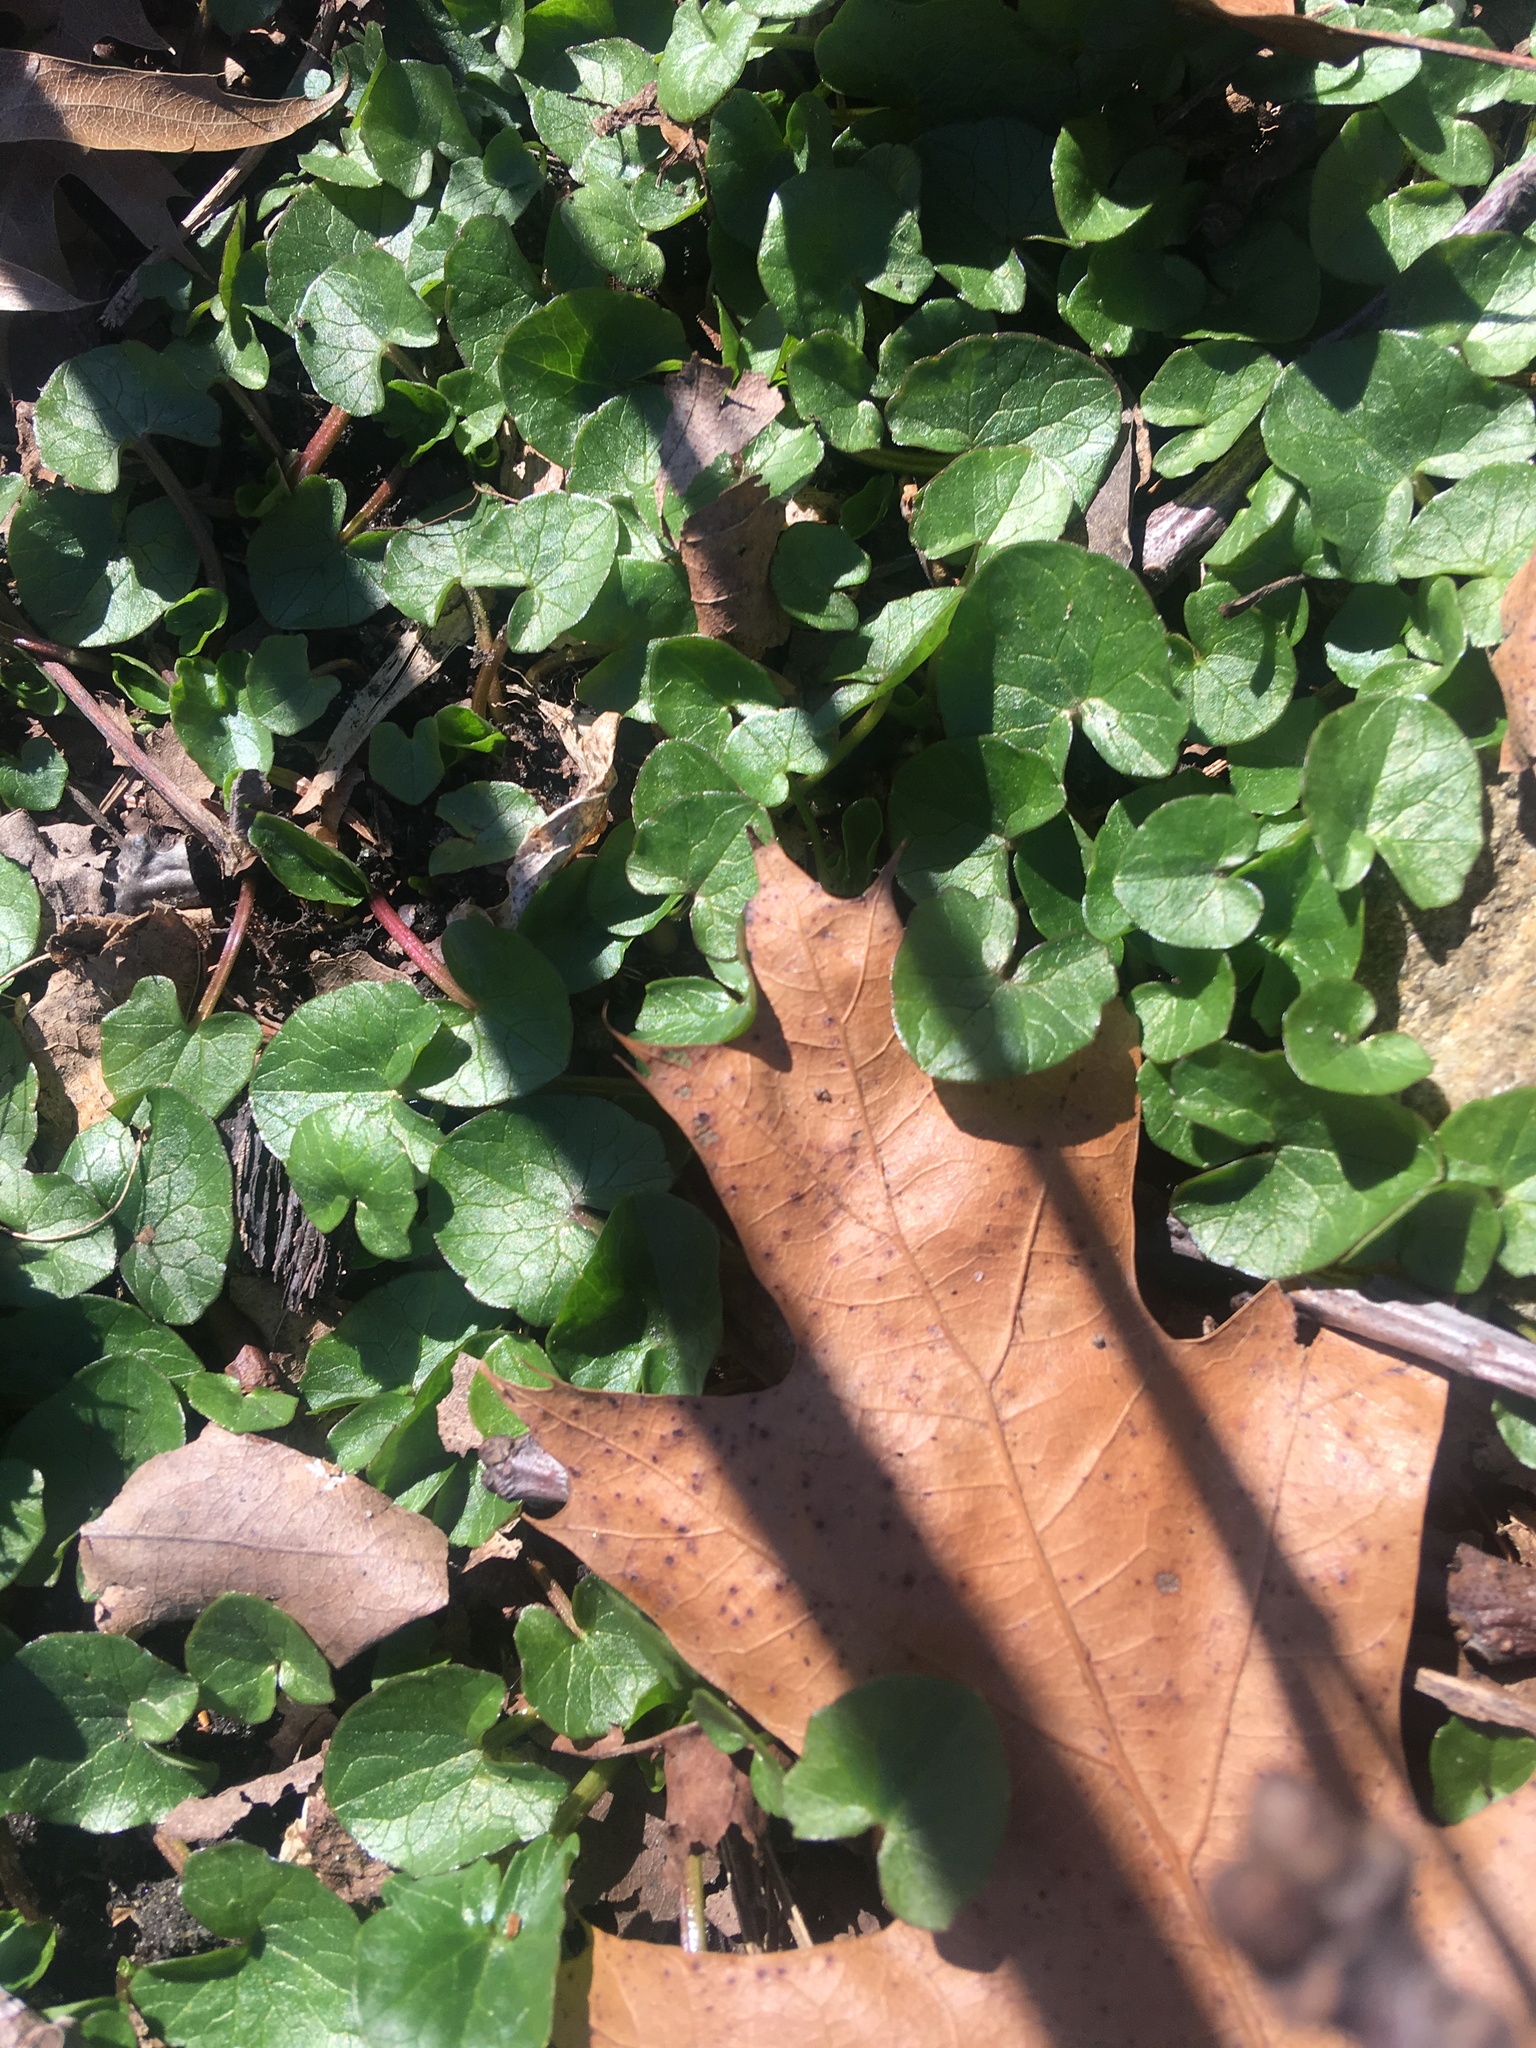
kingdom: Plantae
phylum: Tracheophyta
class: Magnoliopsida
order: Ranunculales
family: Ranunculaceae
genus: Ficaria
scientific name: Ficaria verna
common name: Lesser celandine
